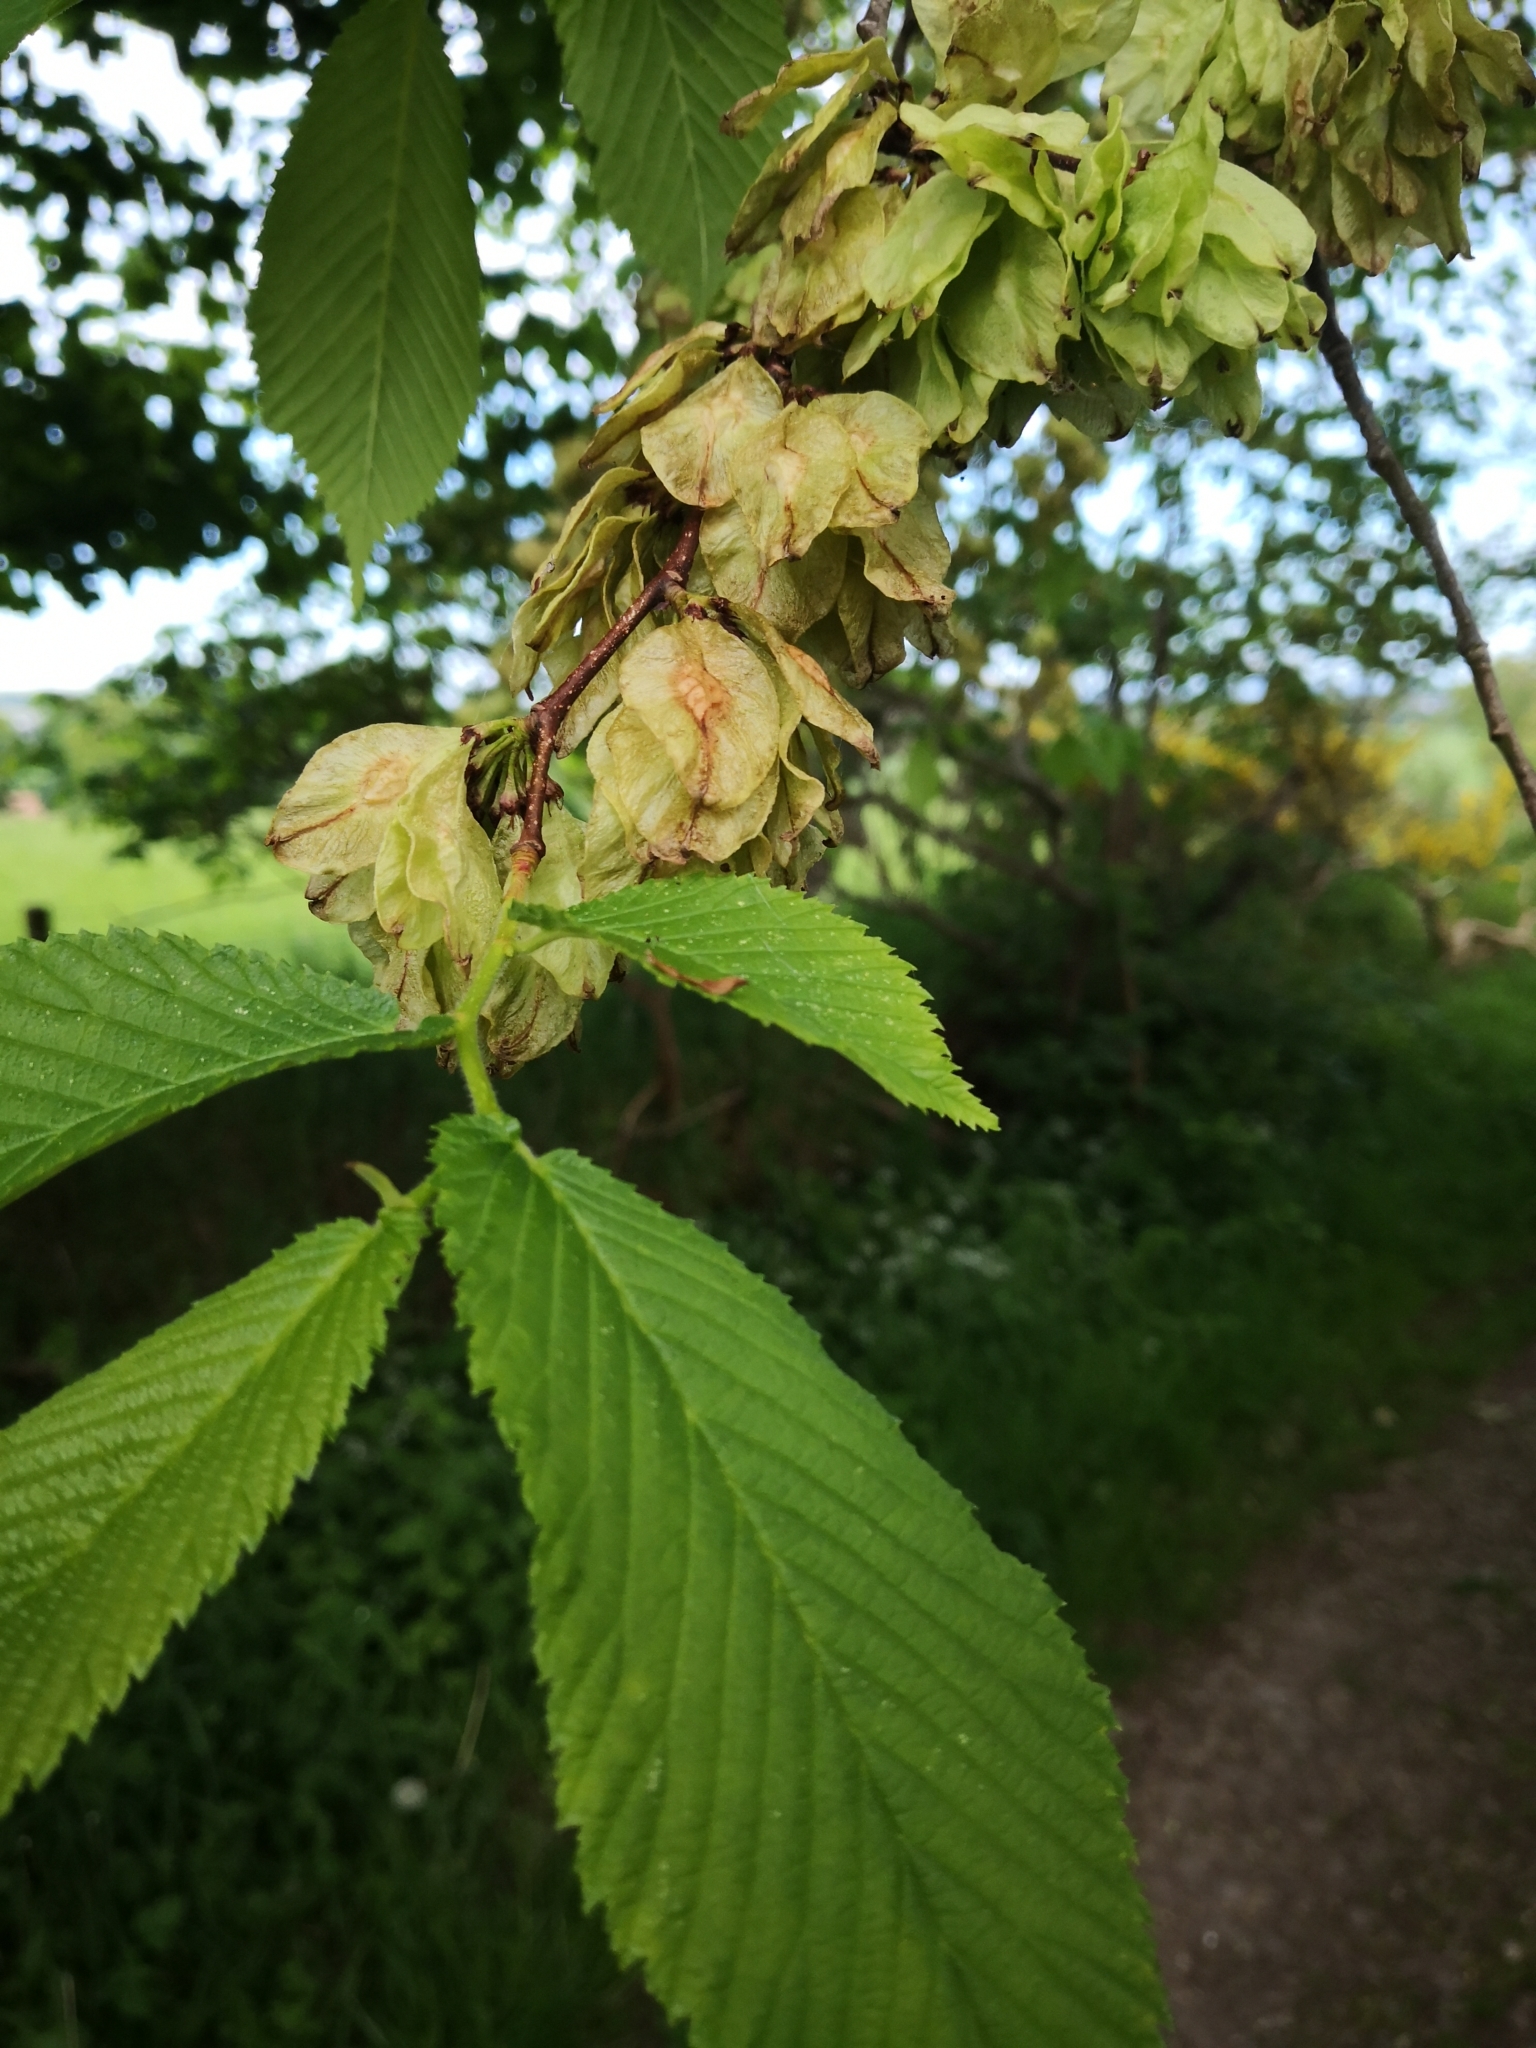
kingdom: Plantae
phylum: Tracheophyta
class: Magnoliopsida
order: Rosales
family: Ulmaceae
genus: Ulmus
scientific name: Ulmus glabra
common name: Wych elm
